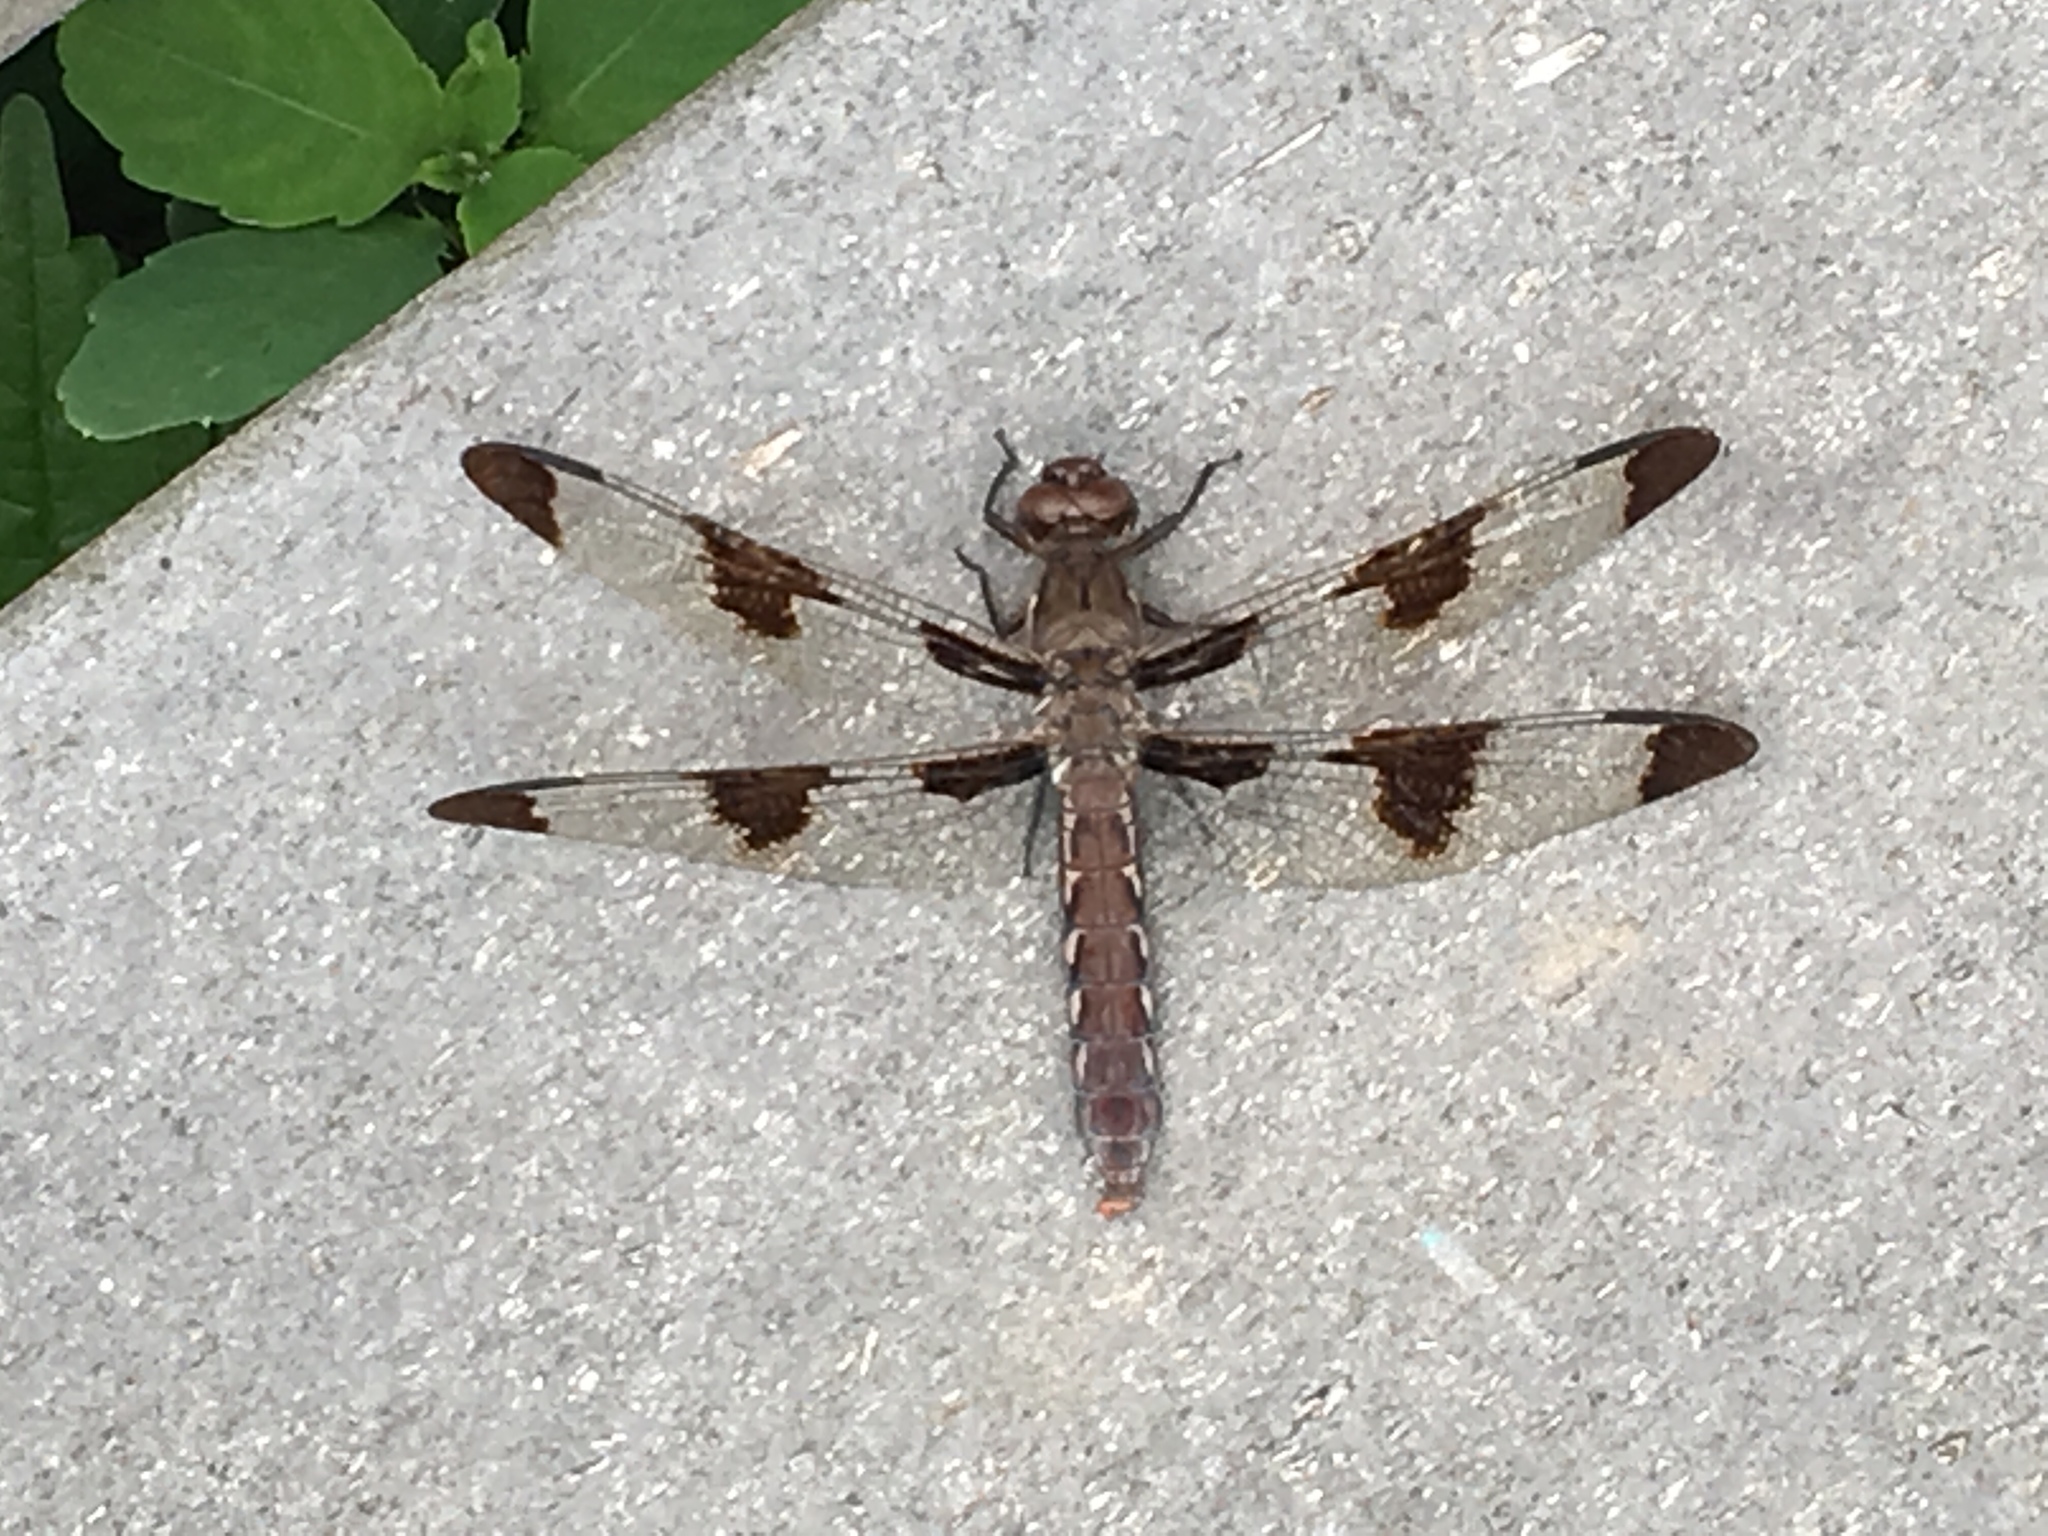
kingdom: Animalia
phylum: Arthropoda
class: Insecta
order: Odonata
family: Libellulidae
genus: Plathemis
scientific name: Plathemis lydia
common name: Common whitetail
